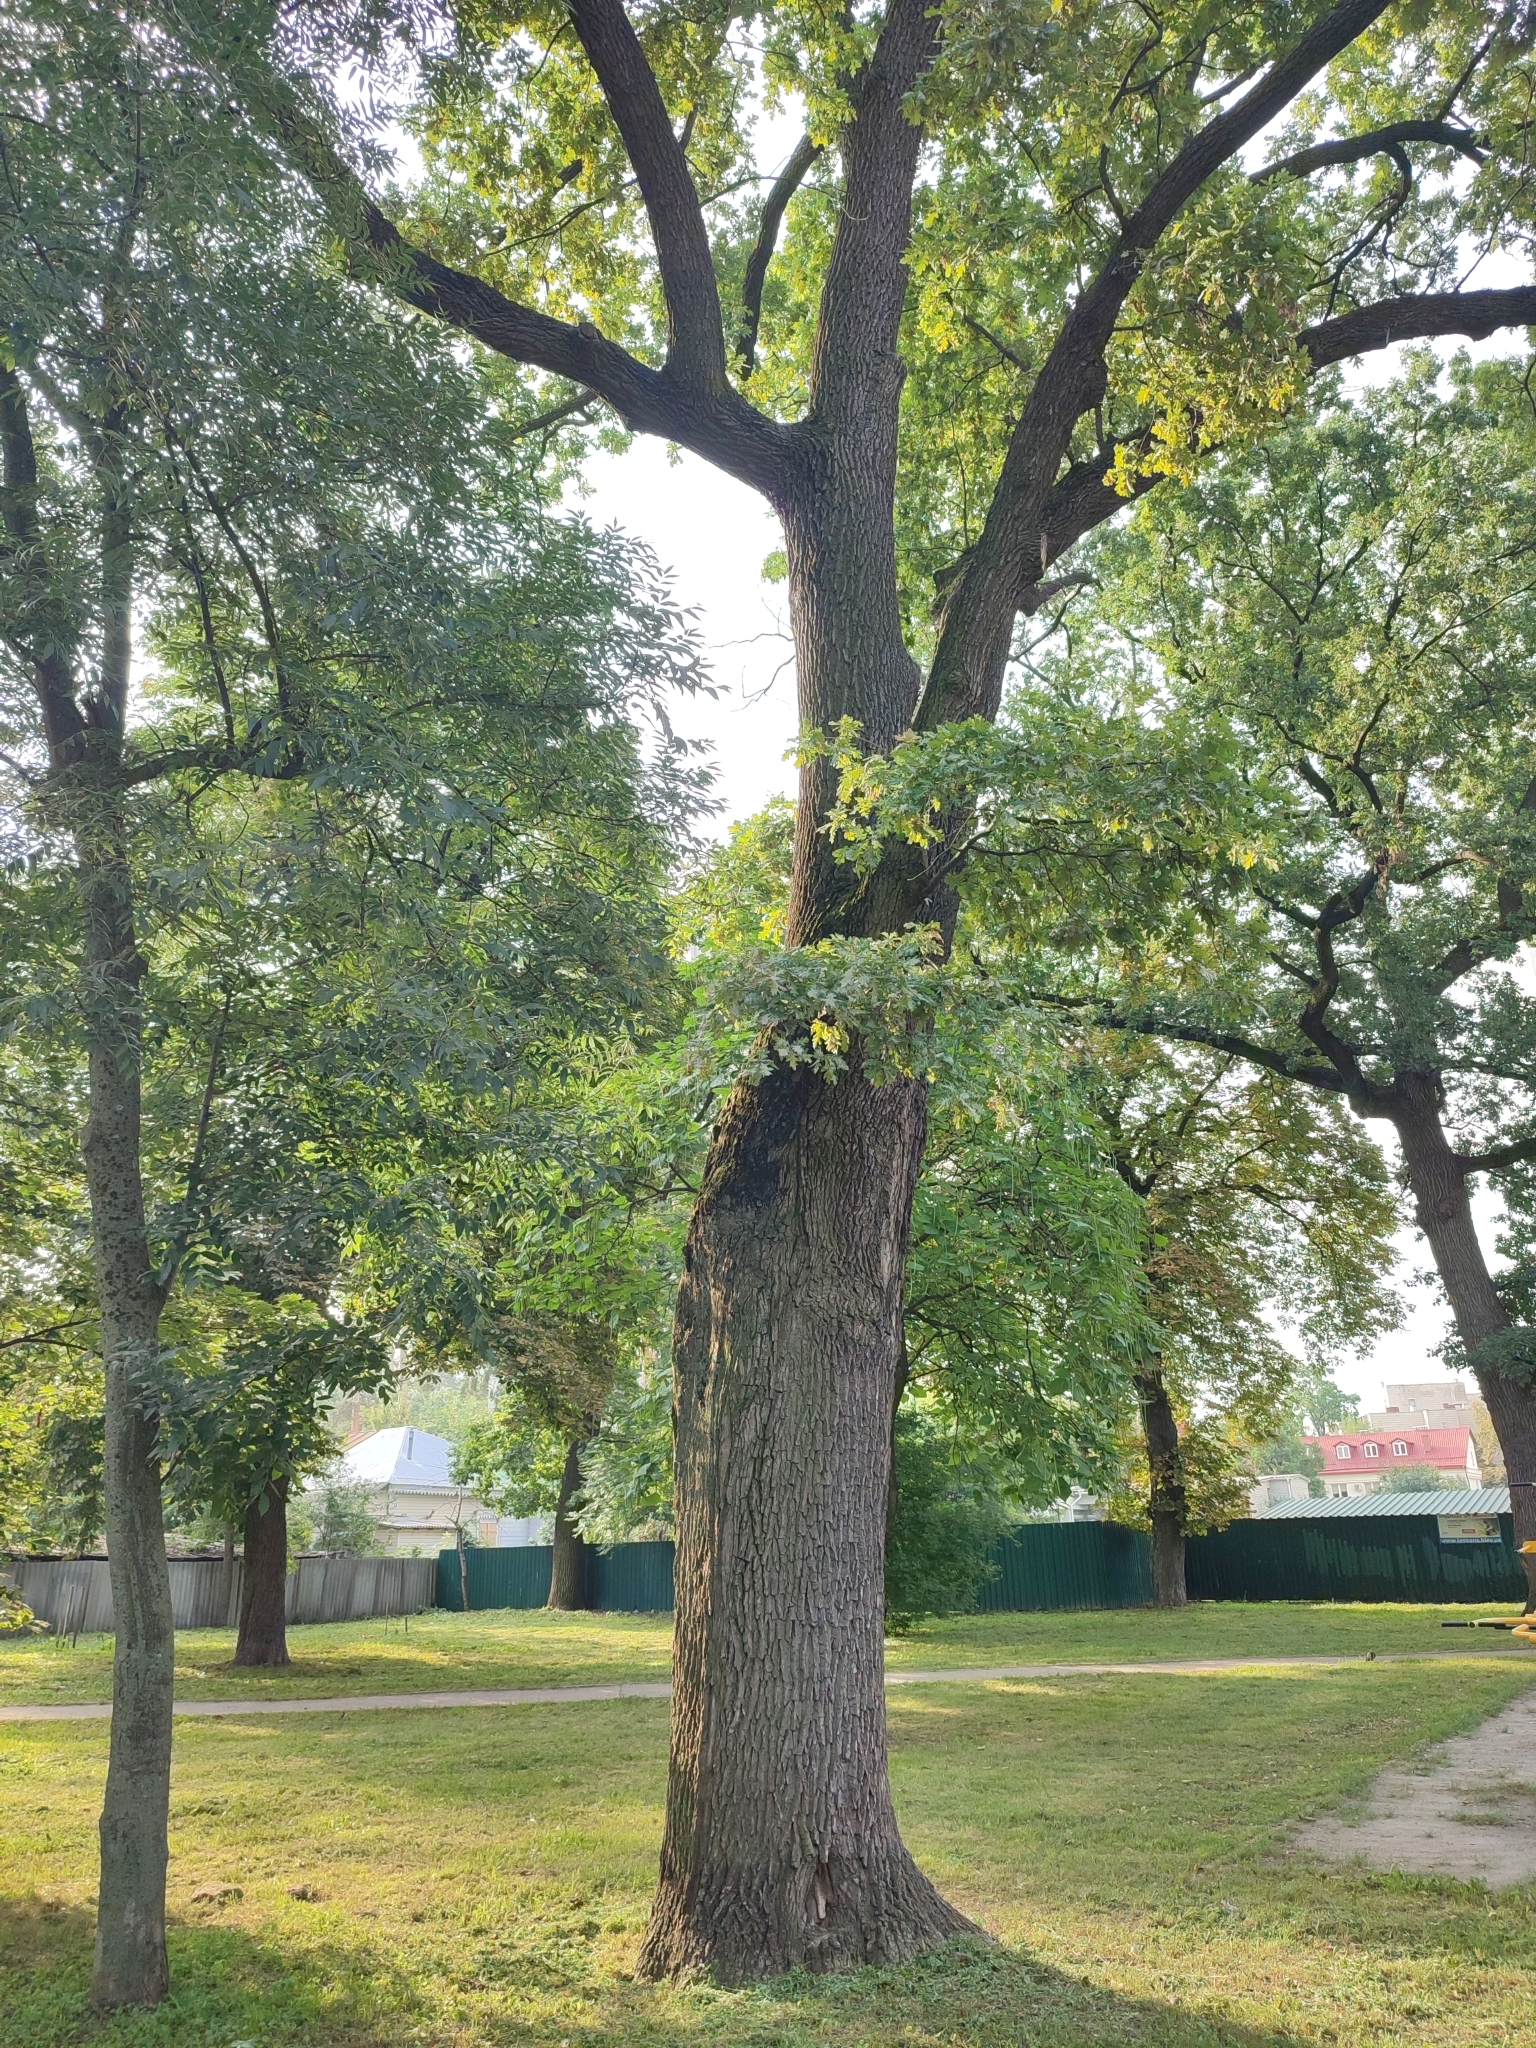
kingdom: Plantae
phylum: Tracheophyta
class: Magnoliopsida
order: Fagales
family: Fagaceae
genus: Quercus
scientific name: Quercus robur
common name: Pedunculate oak
